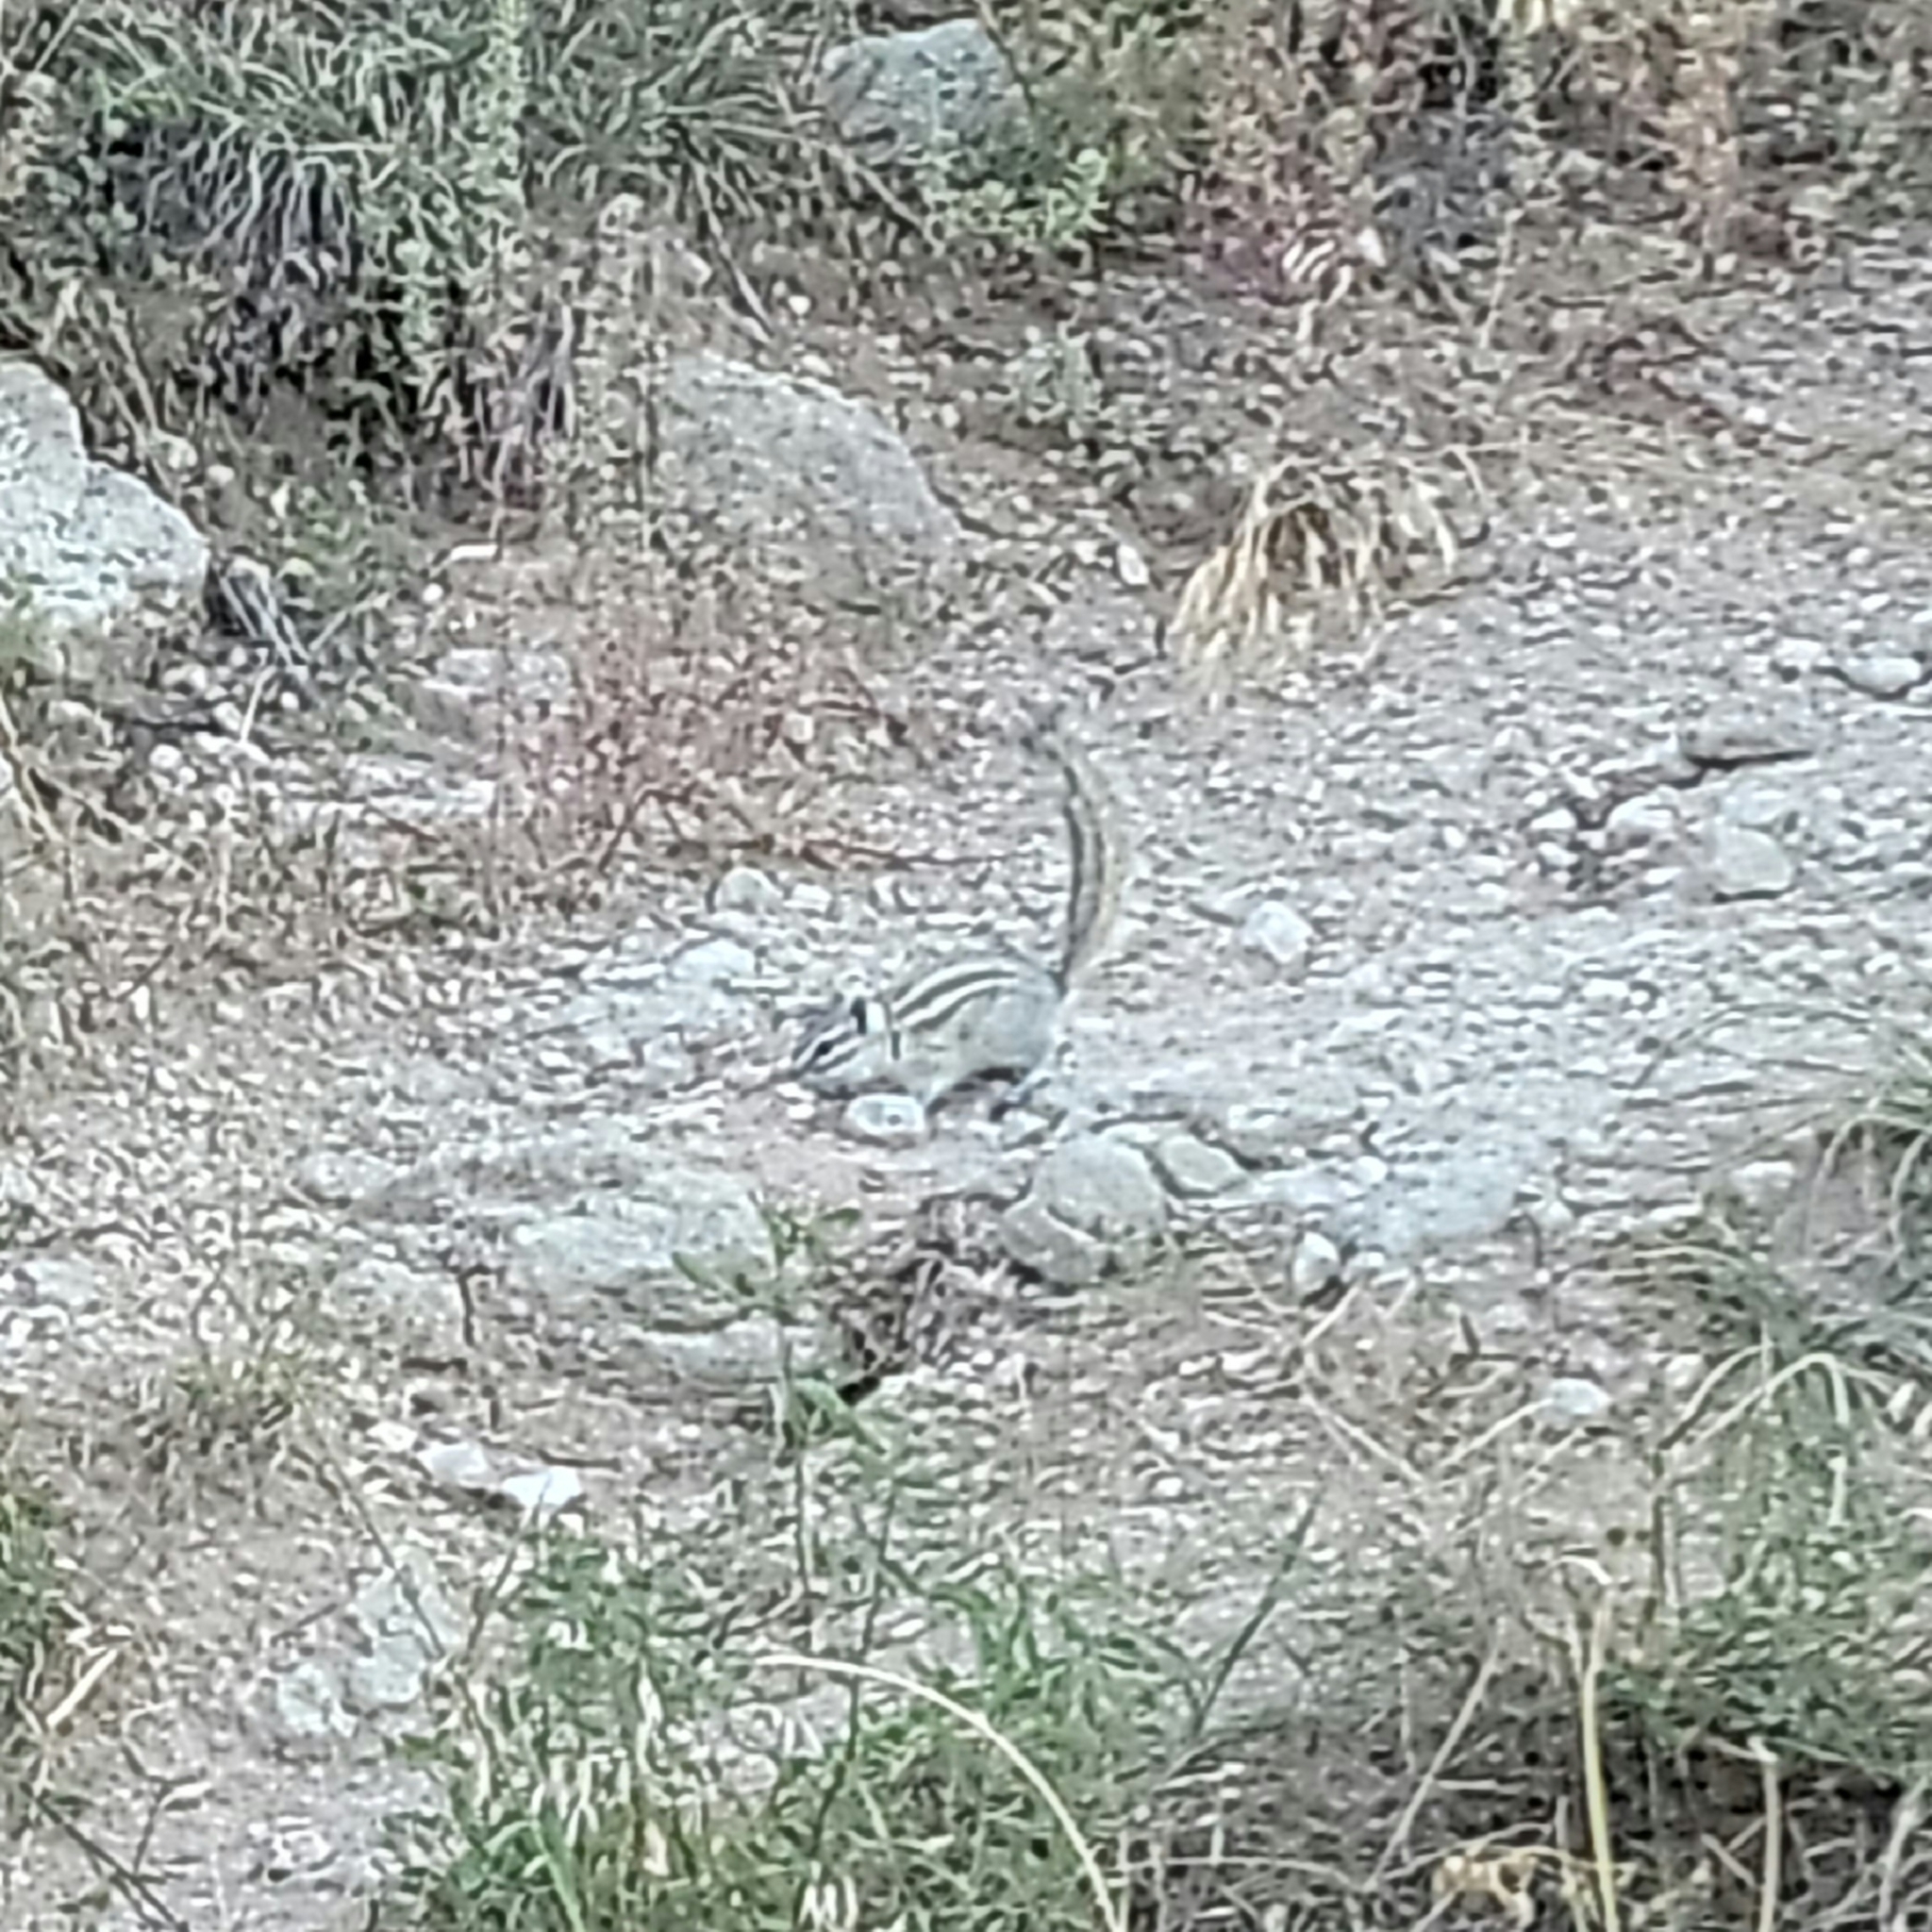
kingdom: Animalia
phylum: Chordata
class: Mammalia
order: Rodentia
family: Sciuridae
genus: Tamias
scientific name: Tamias minimus
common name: Least chipmunk
